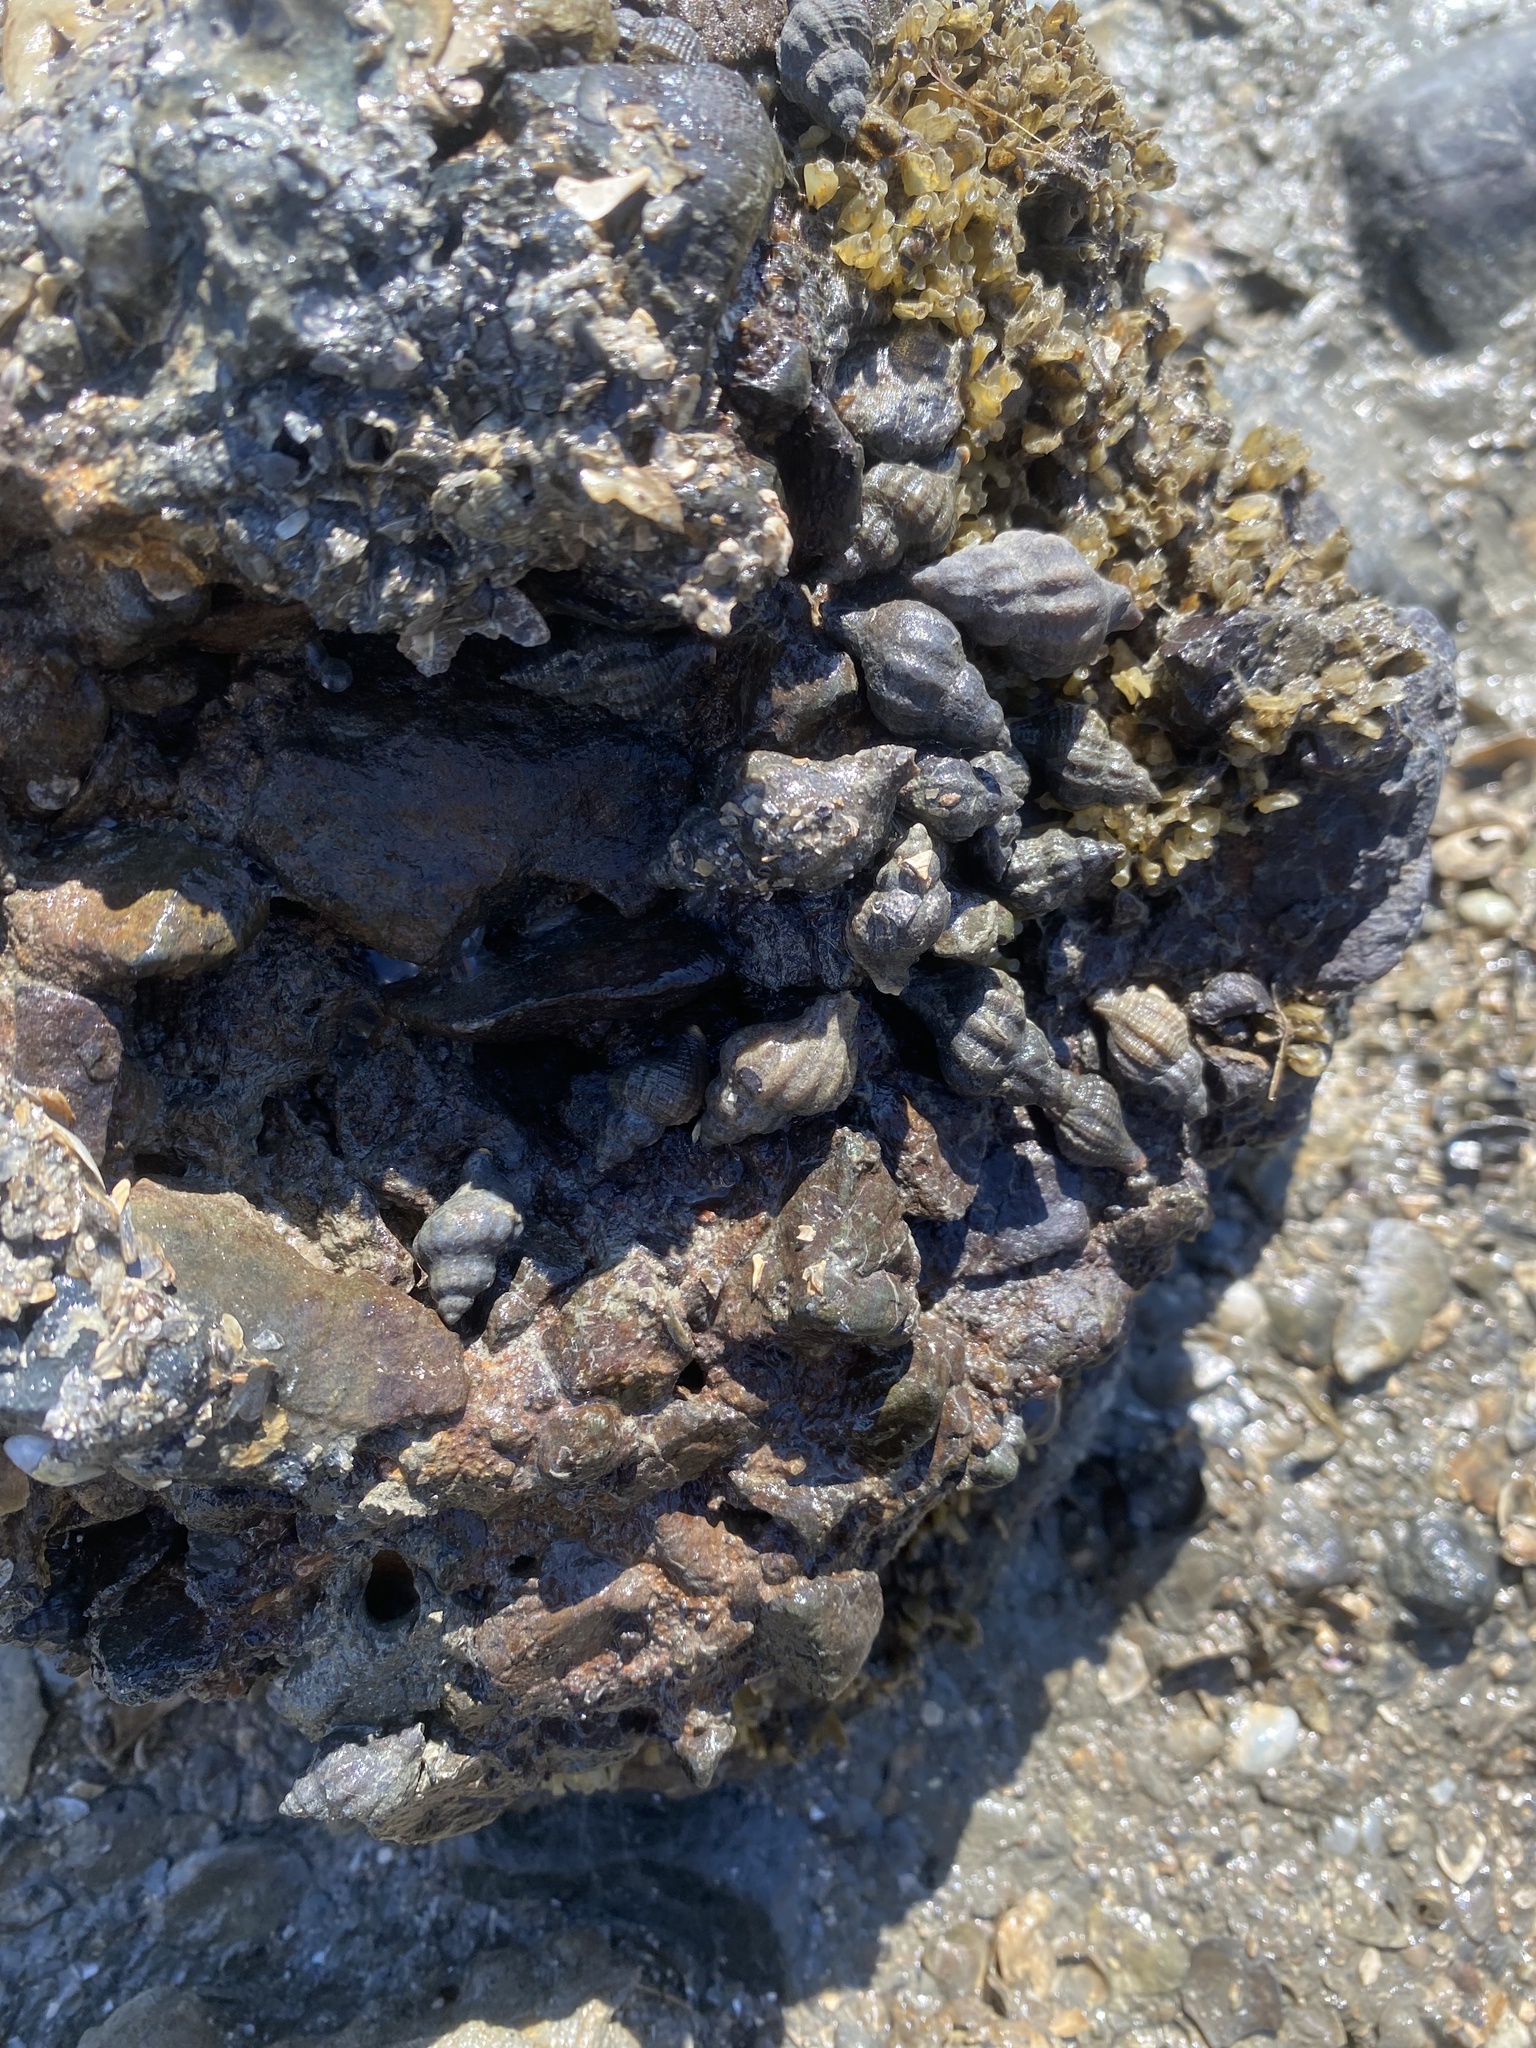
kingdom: Animalia
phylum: Mollusca
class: Gastropoda
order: Neogastropoda
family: Muricidae
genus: Urosalpinx
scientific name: Urosalpinx cinerea
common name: American sting winkle
